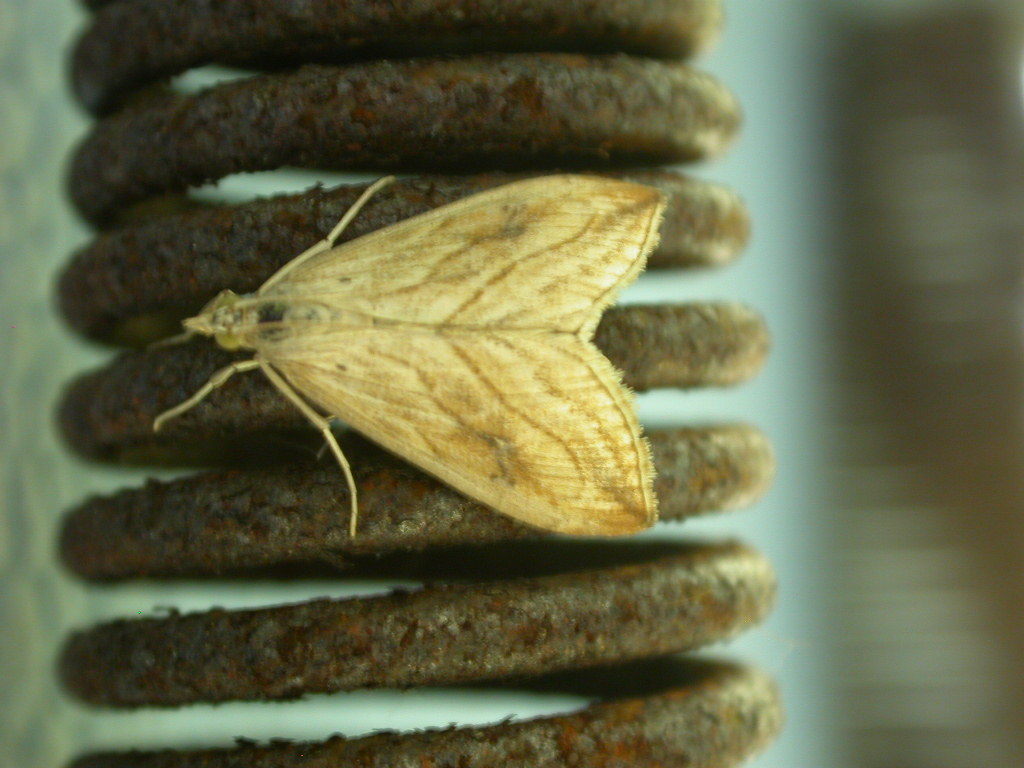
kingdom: Animalia
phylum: Arthropoda
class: Insecta
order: Lepidoptera
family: Crambidae
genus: Evergestis
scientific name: Evergestis forficalis
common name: Garden pebble
